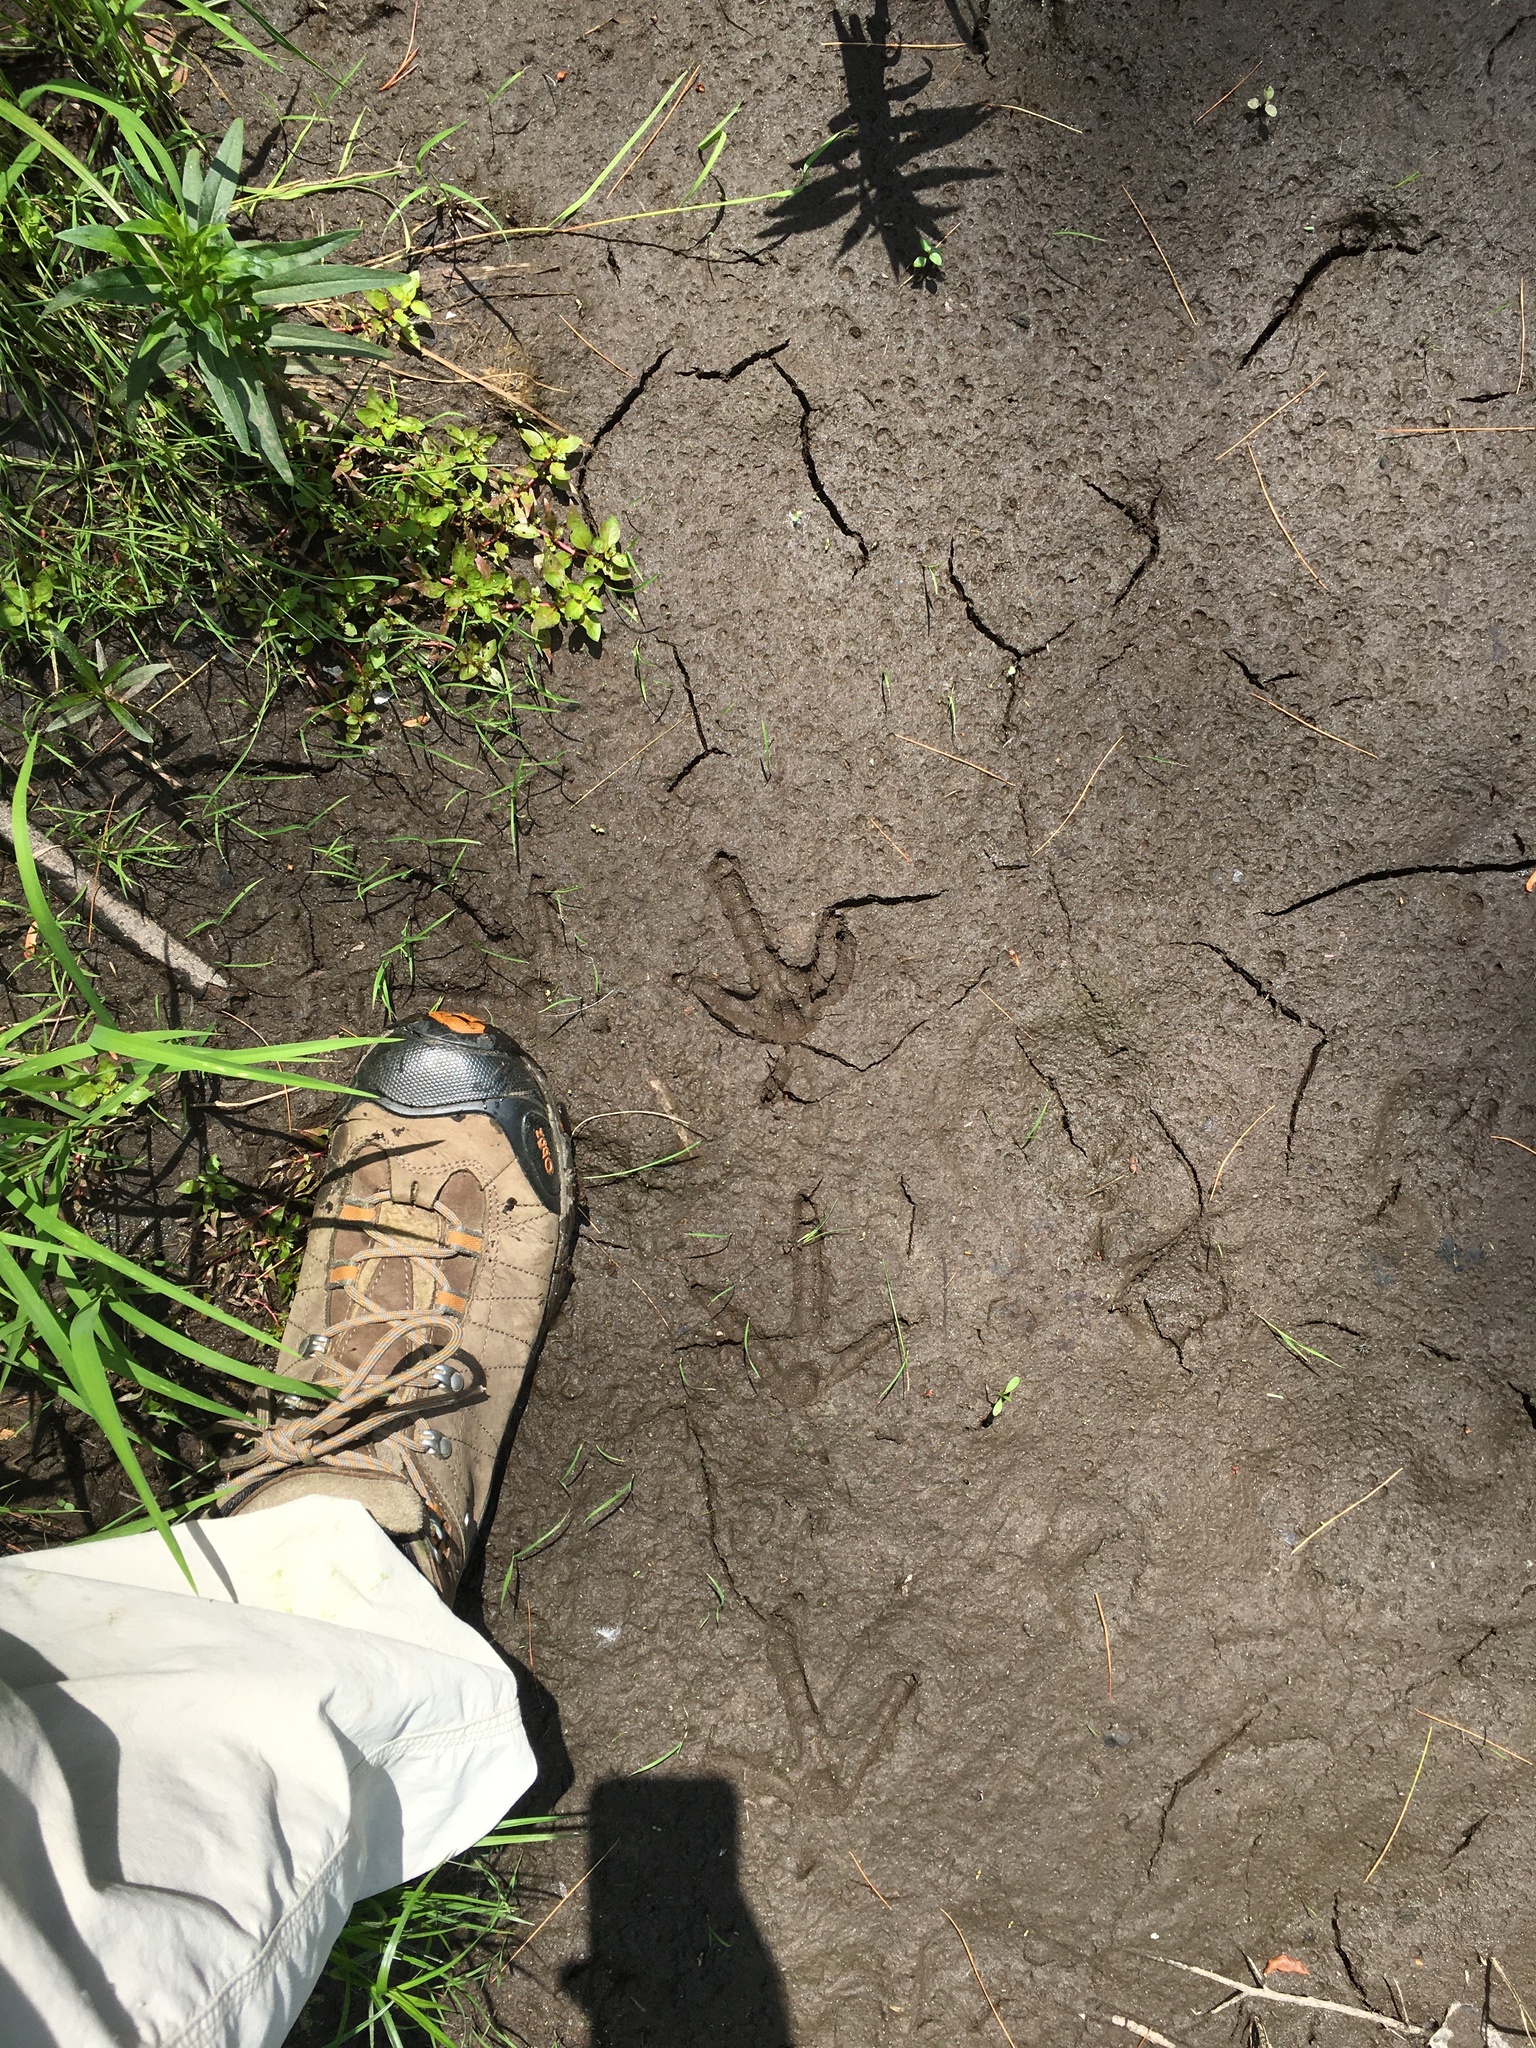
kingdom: Animalia
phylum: Chordata
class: Aves
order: Galliformes
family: Phasianidae
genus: Meleagris
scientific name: Meleagris gallopavo
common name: Wild turkey
